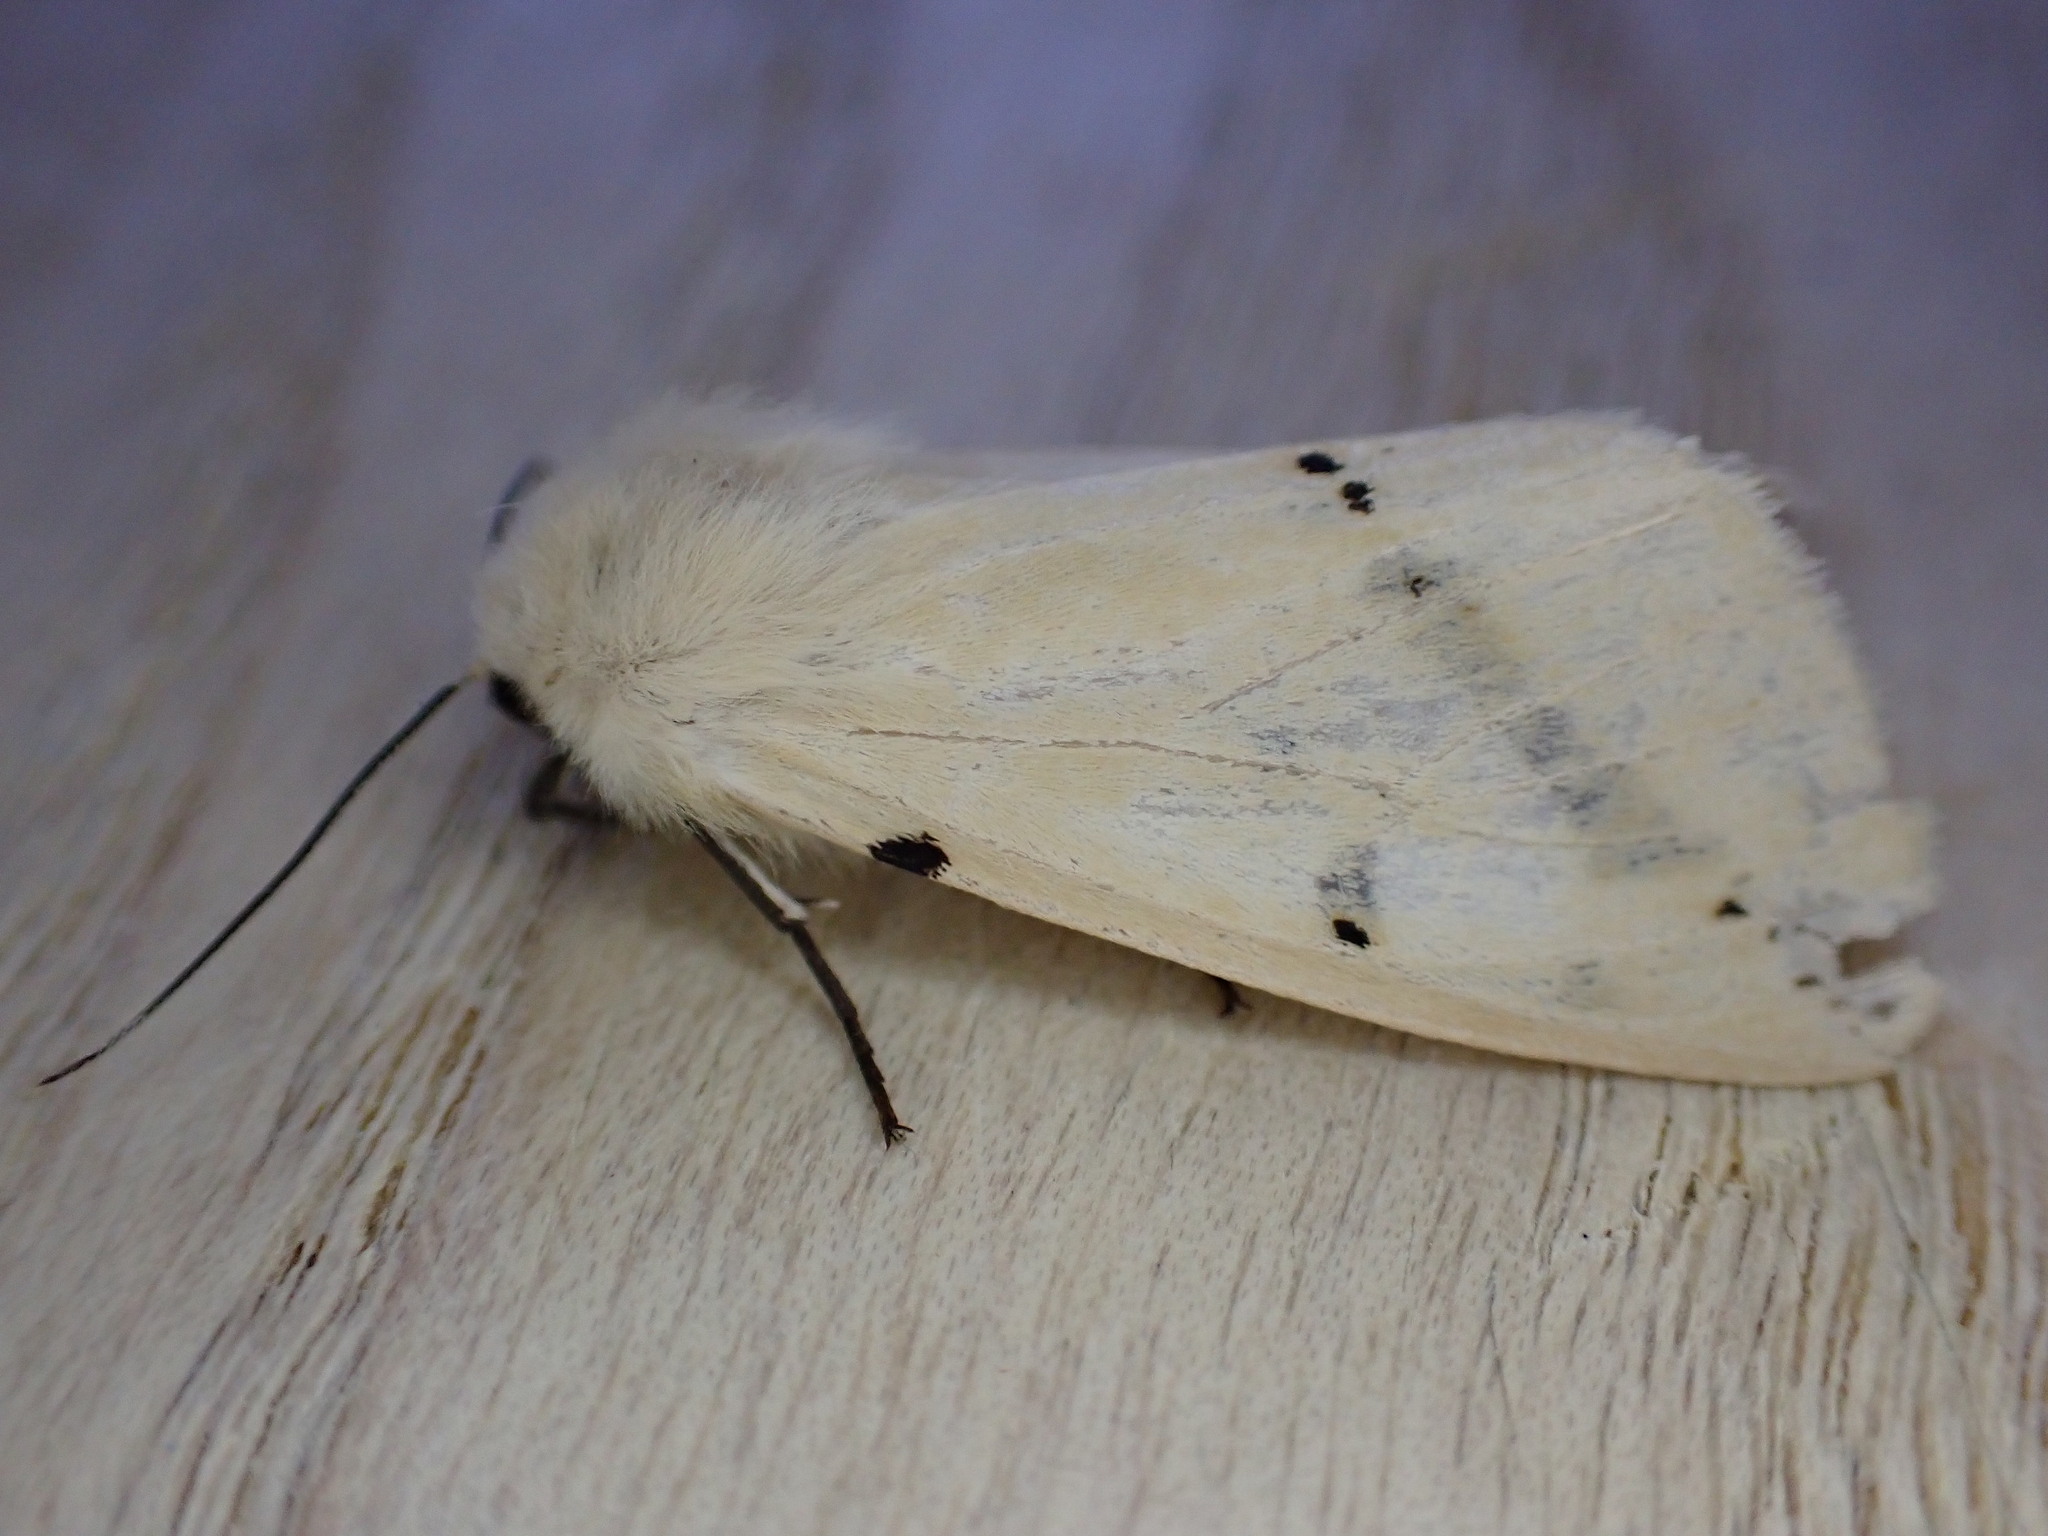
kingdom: Animalia
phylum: Arthropoda
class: Insecta
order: Lepidoptera
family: Erebidae
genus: Spilarctia
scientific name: Spilarctia lutea
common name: Buff ermine
